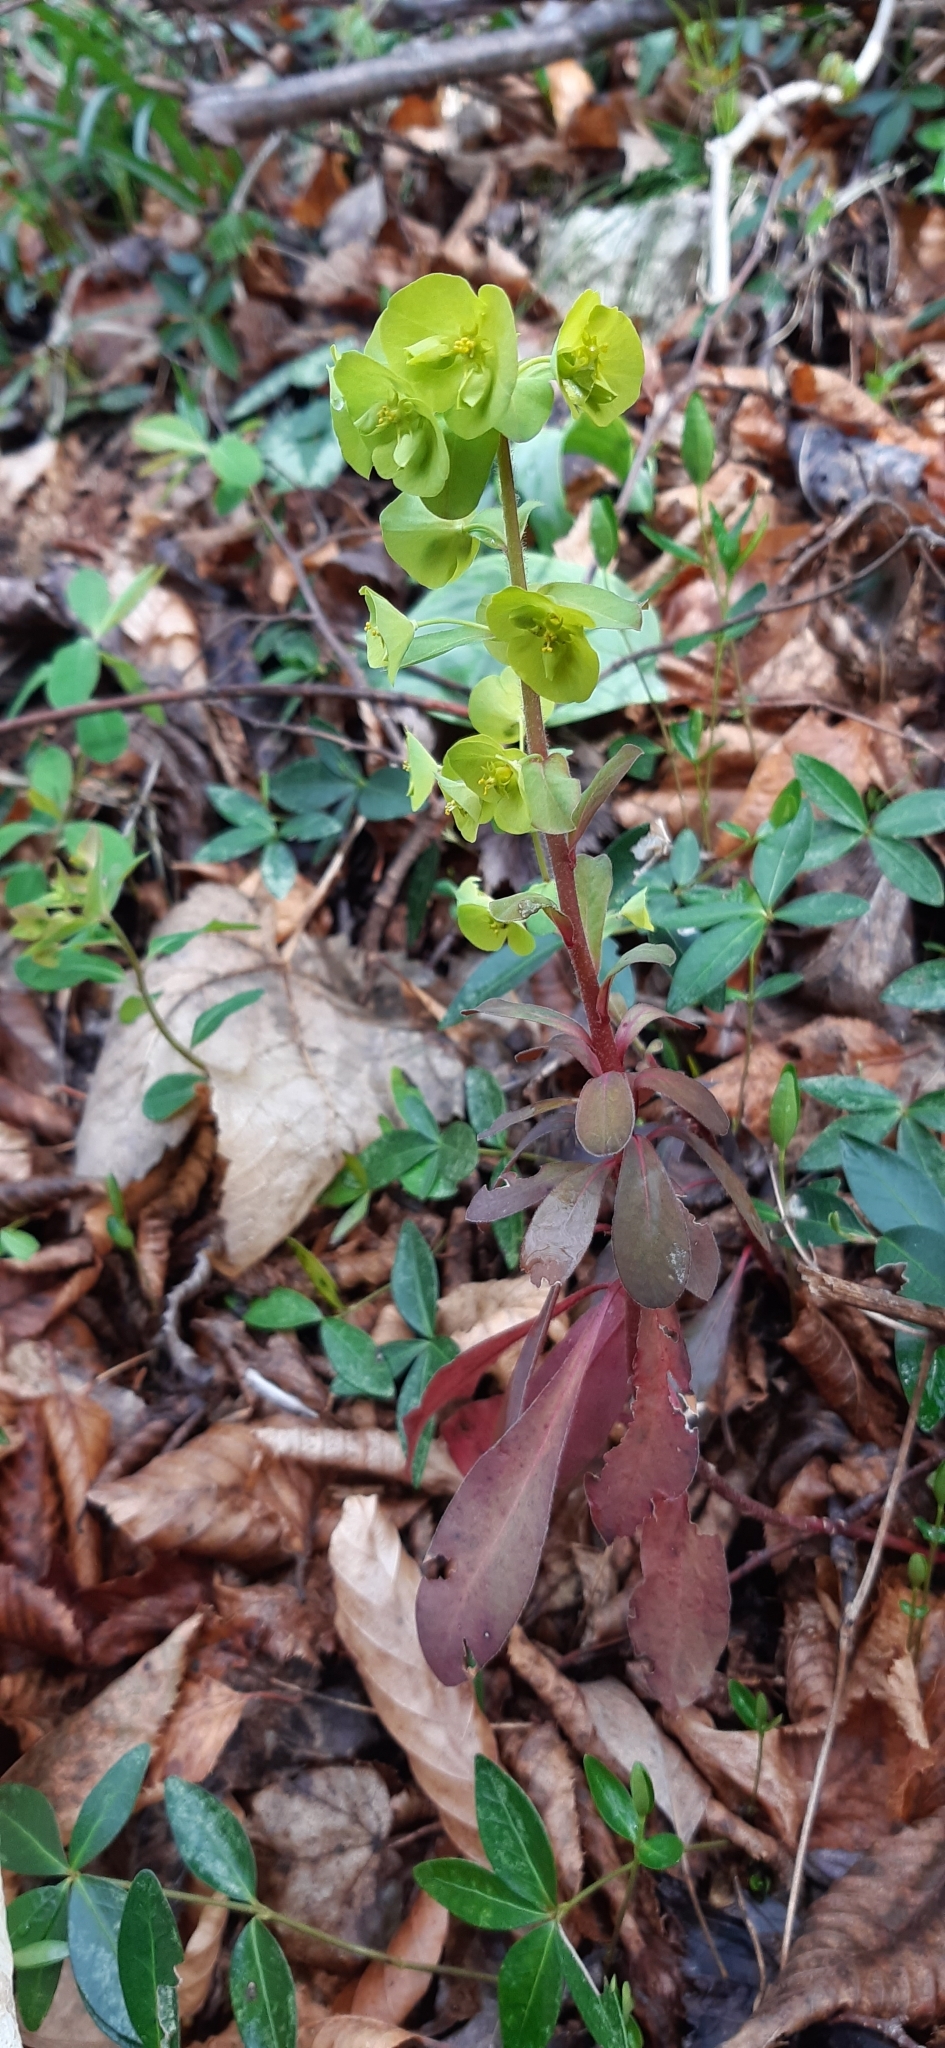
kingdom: Plantae
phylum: Tracheophyta
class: Magnoliopsida
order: Malpighiales
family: Euphorbiaceae
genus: Euphorbia
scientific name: Euphorbia amygdaloides
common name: Wood spurge
